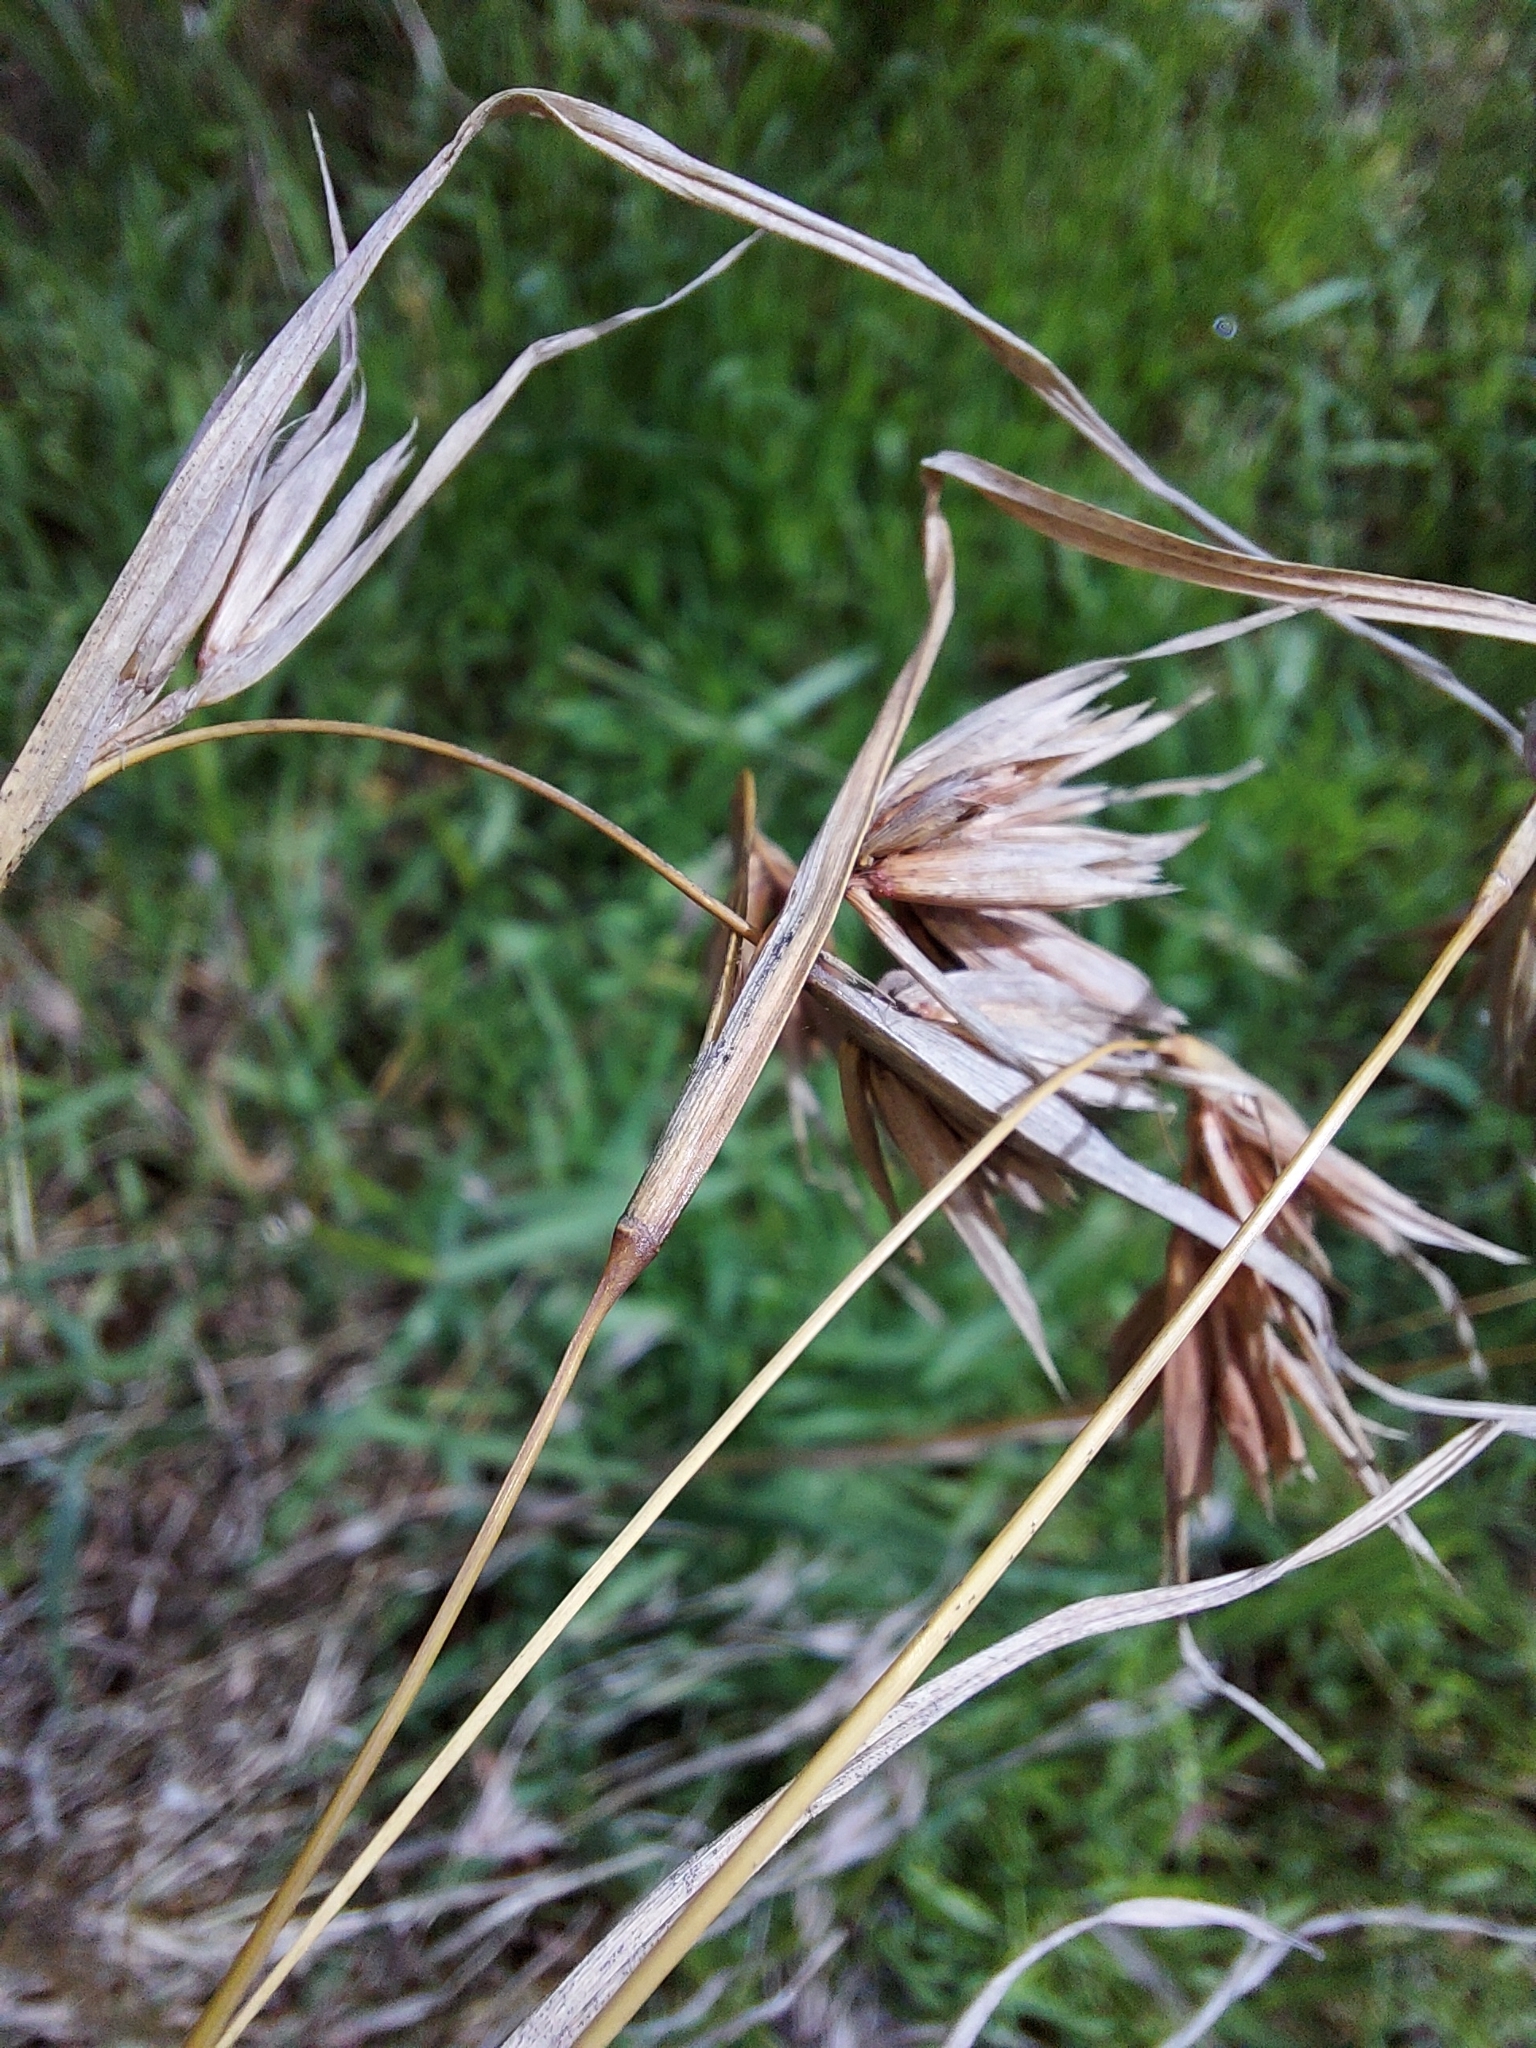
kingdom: Plantae
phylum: Tracheophyta
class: Liliopsida
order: Poales
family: Poaceae
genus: Themeda
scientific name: Themeda triandra
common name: Kangaroo grass
